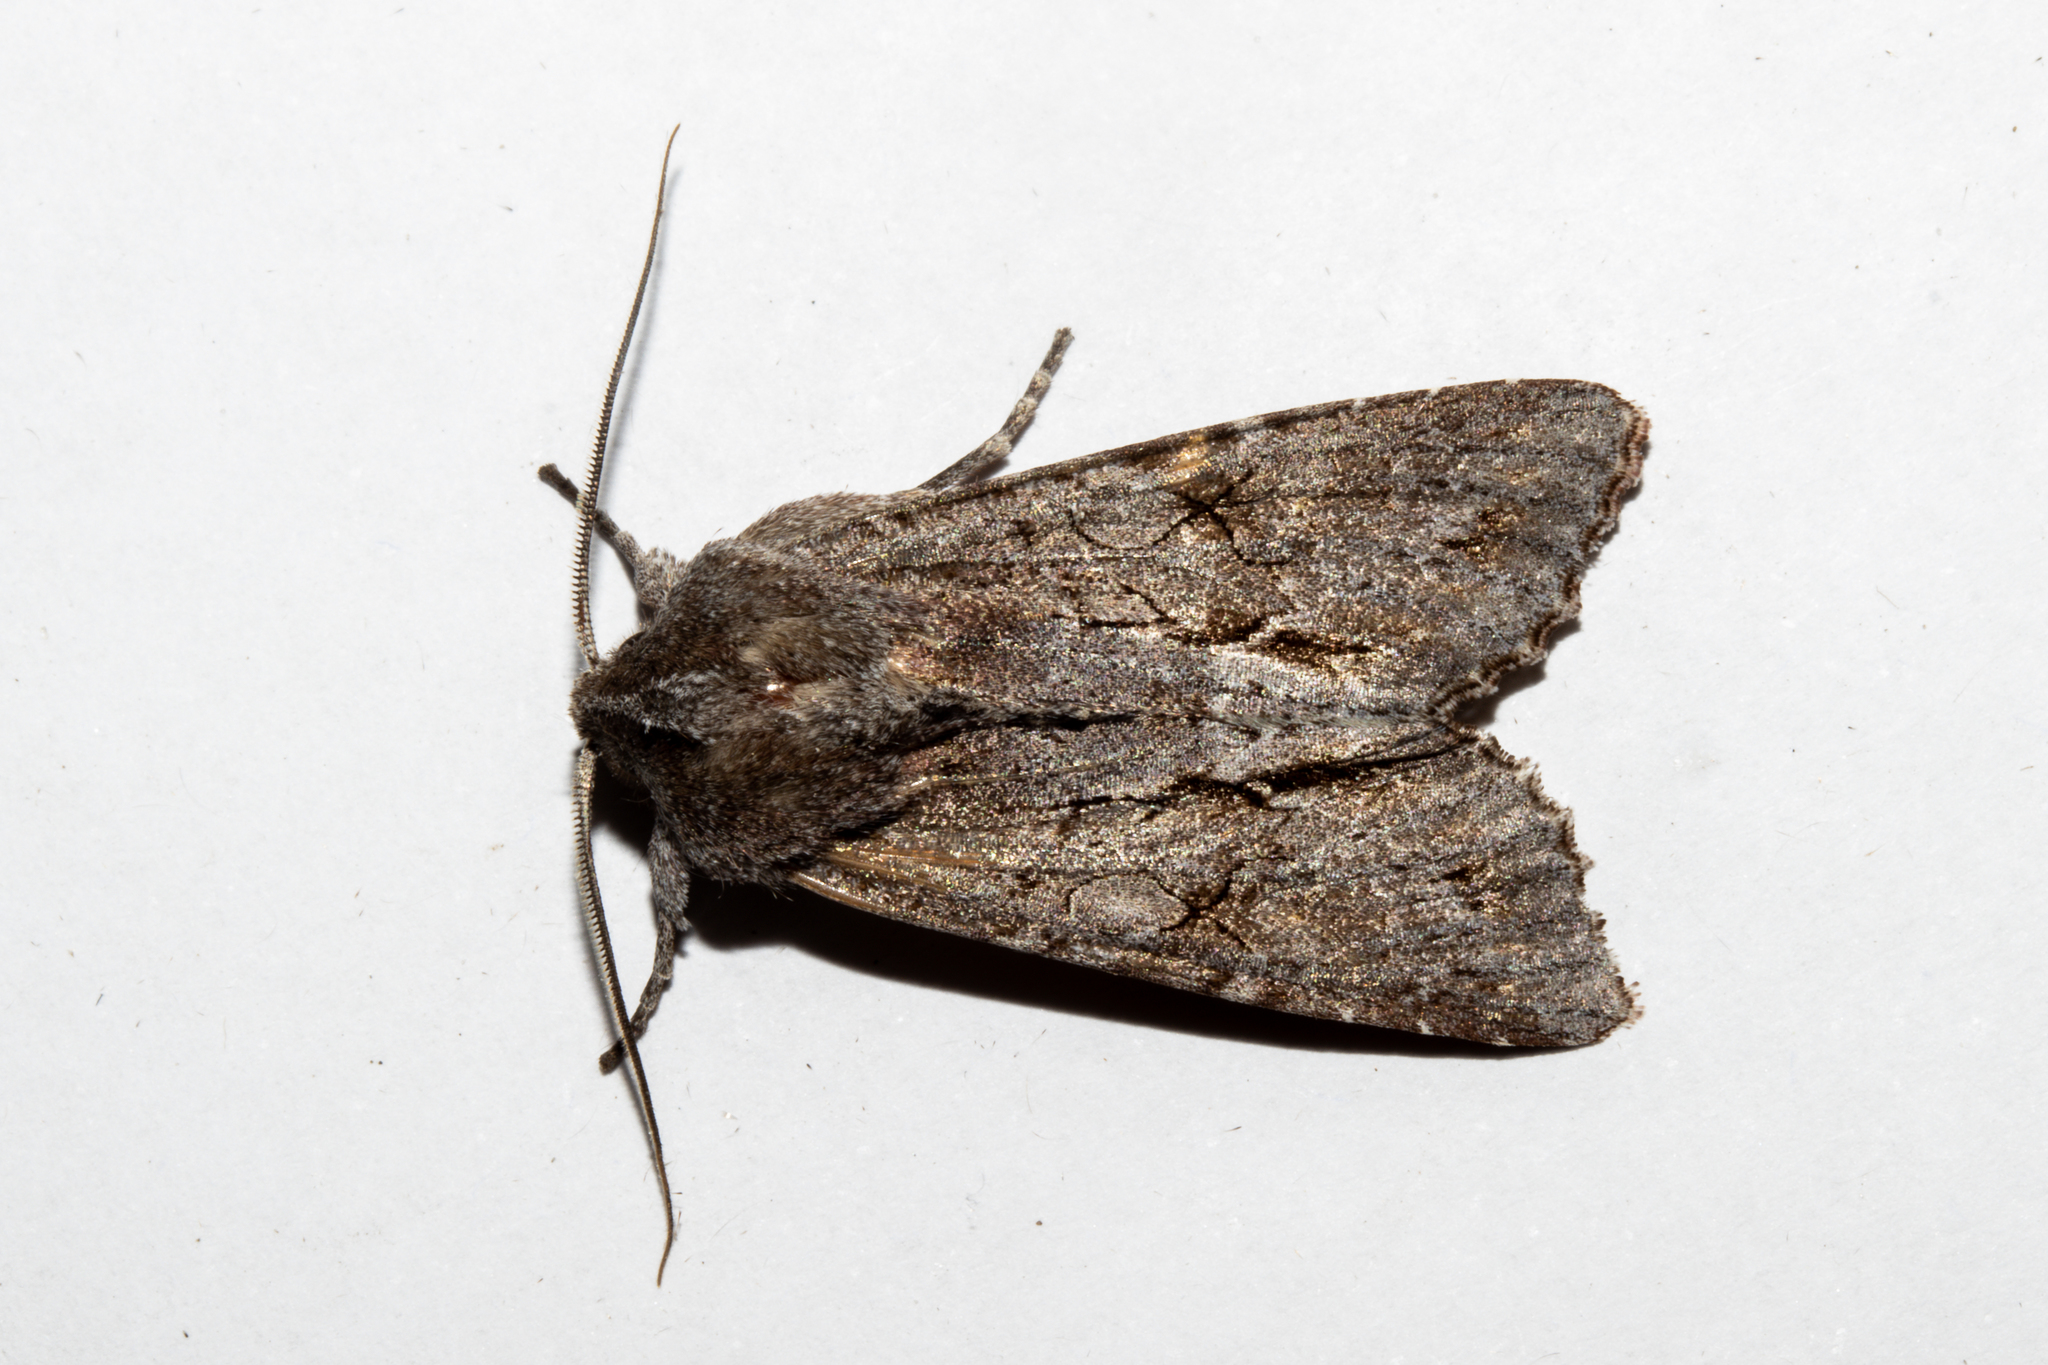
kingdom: Animalia
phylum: Arthropoda
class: Insecta
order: Lepidoptera
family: Noctuidae
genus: Ichneutica
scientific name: Ichneutica
